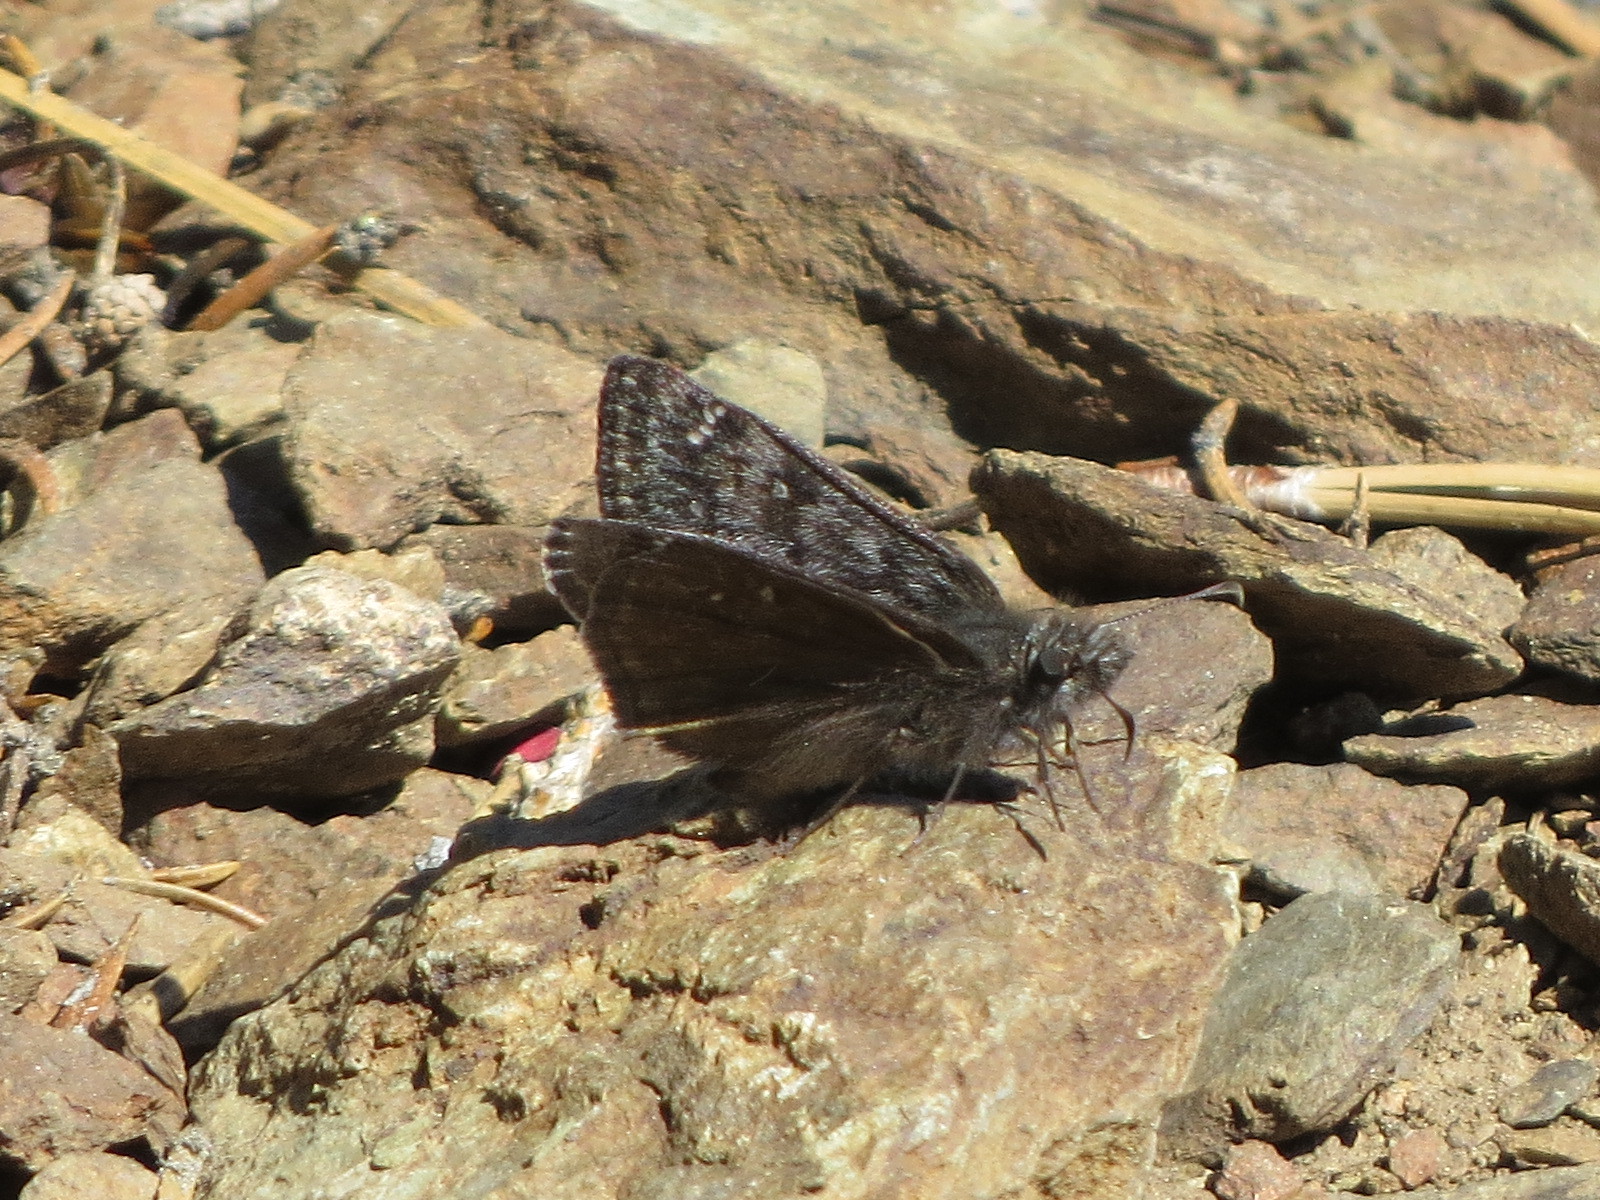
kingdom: Animalia
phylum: Arthropoda
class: Insecta
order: Lepidoptera
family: Hesperiidae
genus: Erynnis
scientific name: Erynnis propertius
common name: Propertius duskywing
